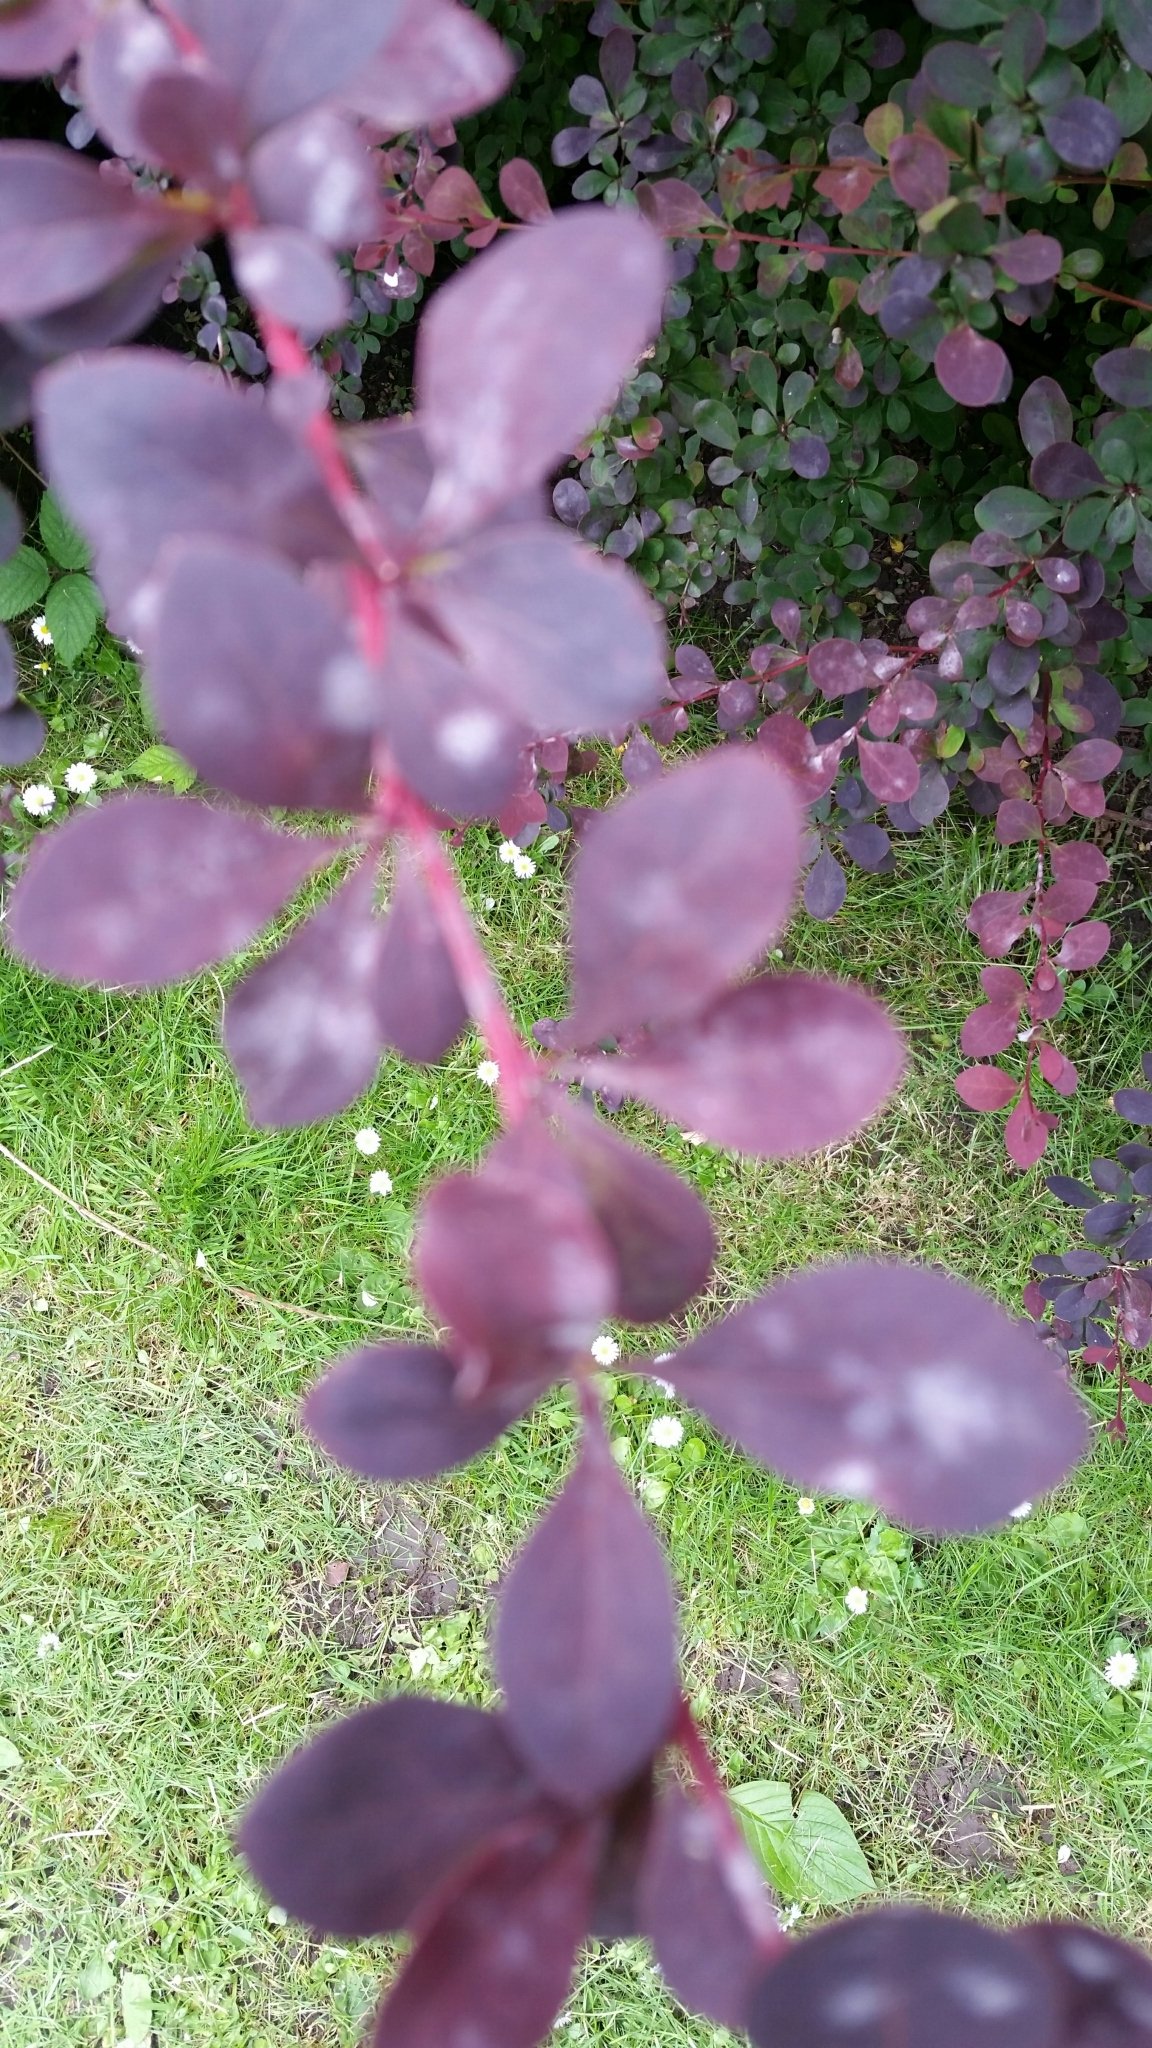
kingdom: Plantae
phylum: Tracheophyta
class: Magnoliopsida
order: Ranunculales
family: Berberidaceae
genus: Berberis
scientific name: Berberis thunbergii
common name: Japanese barberry
